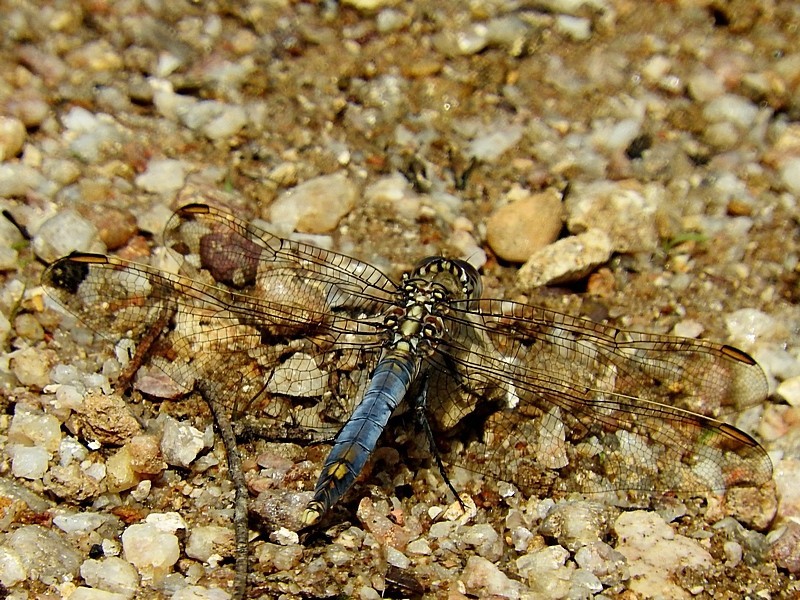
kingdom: Animalia
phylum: Arthropoda
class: Insecta
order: Odonata
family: Libellulidae
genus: Orthetrum
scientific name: Orthetrum caledonicum
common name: Blue skimmer
